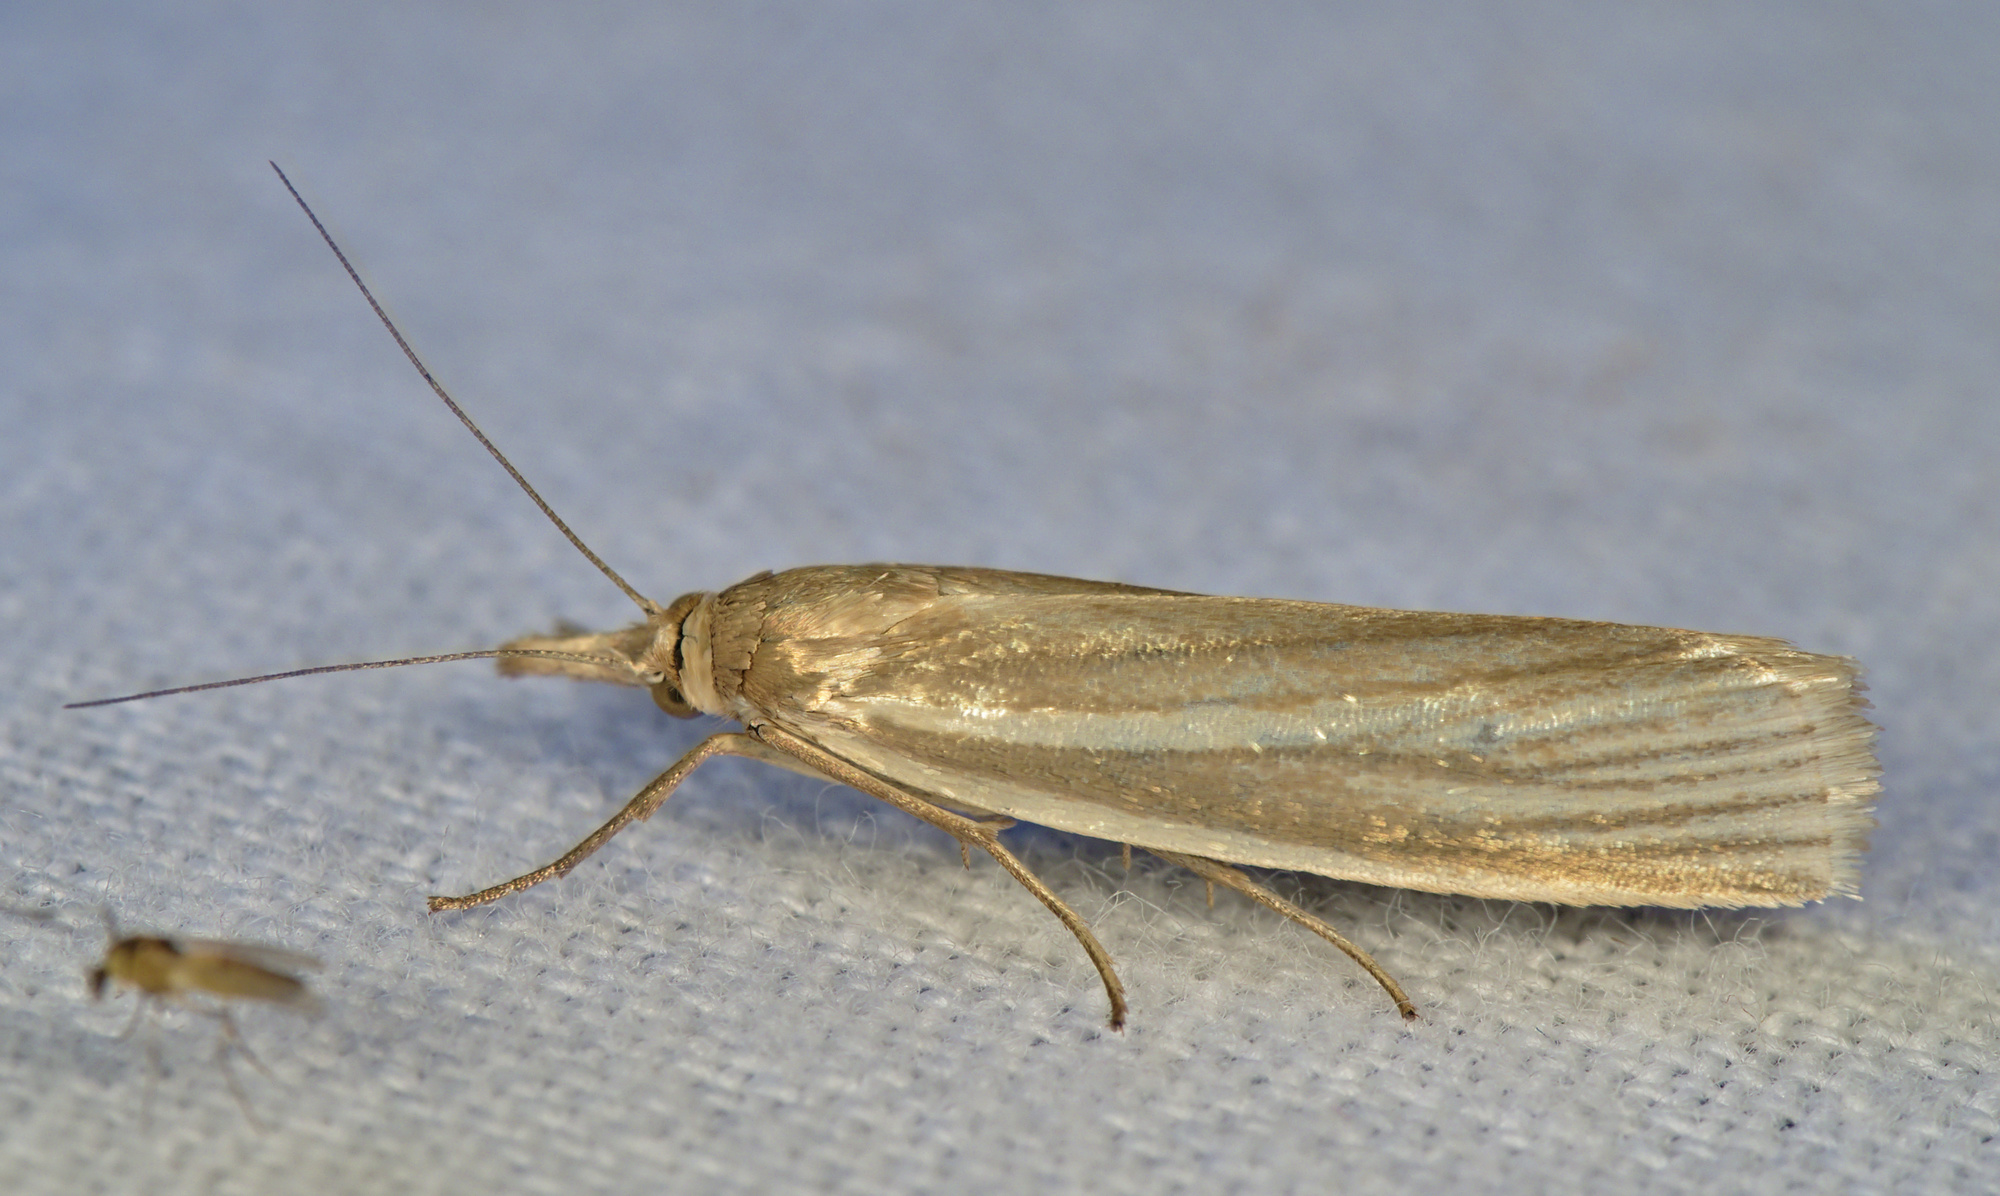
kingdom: Animalia
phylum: Arthropoda
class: Insecta
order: Lepidoptera
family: Crambidae
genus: Crambus
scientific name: Crambus perlellus
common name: Yellow satin veneer
